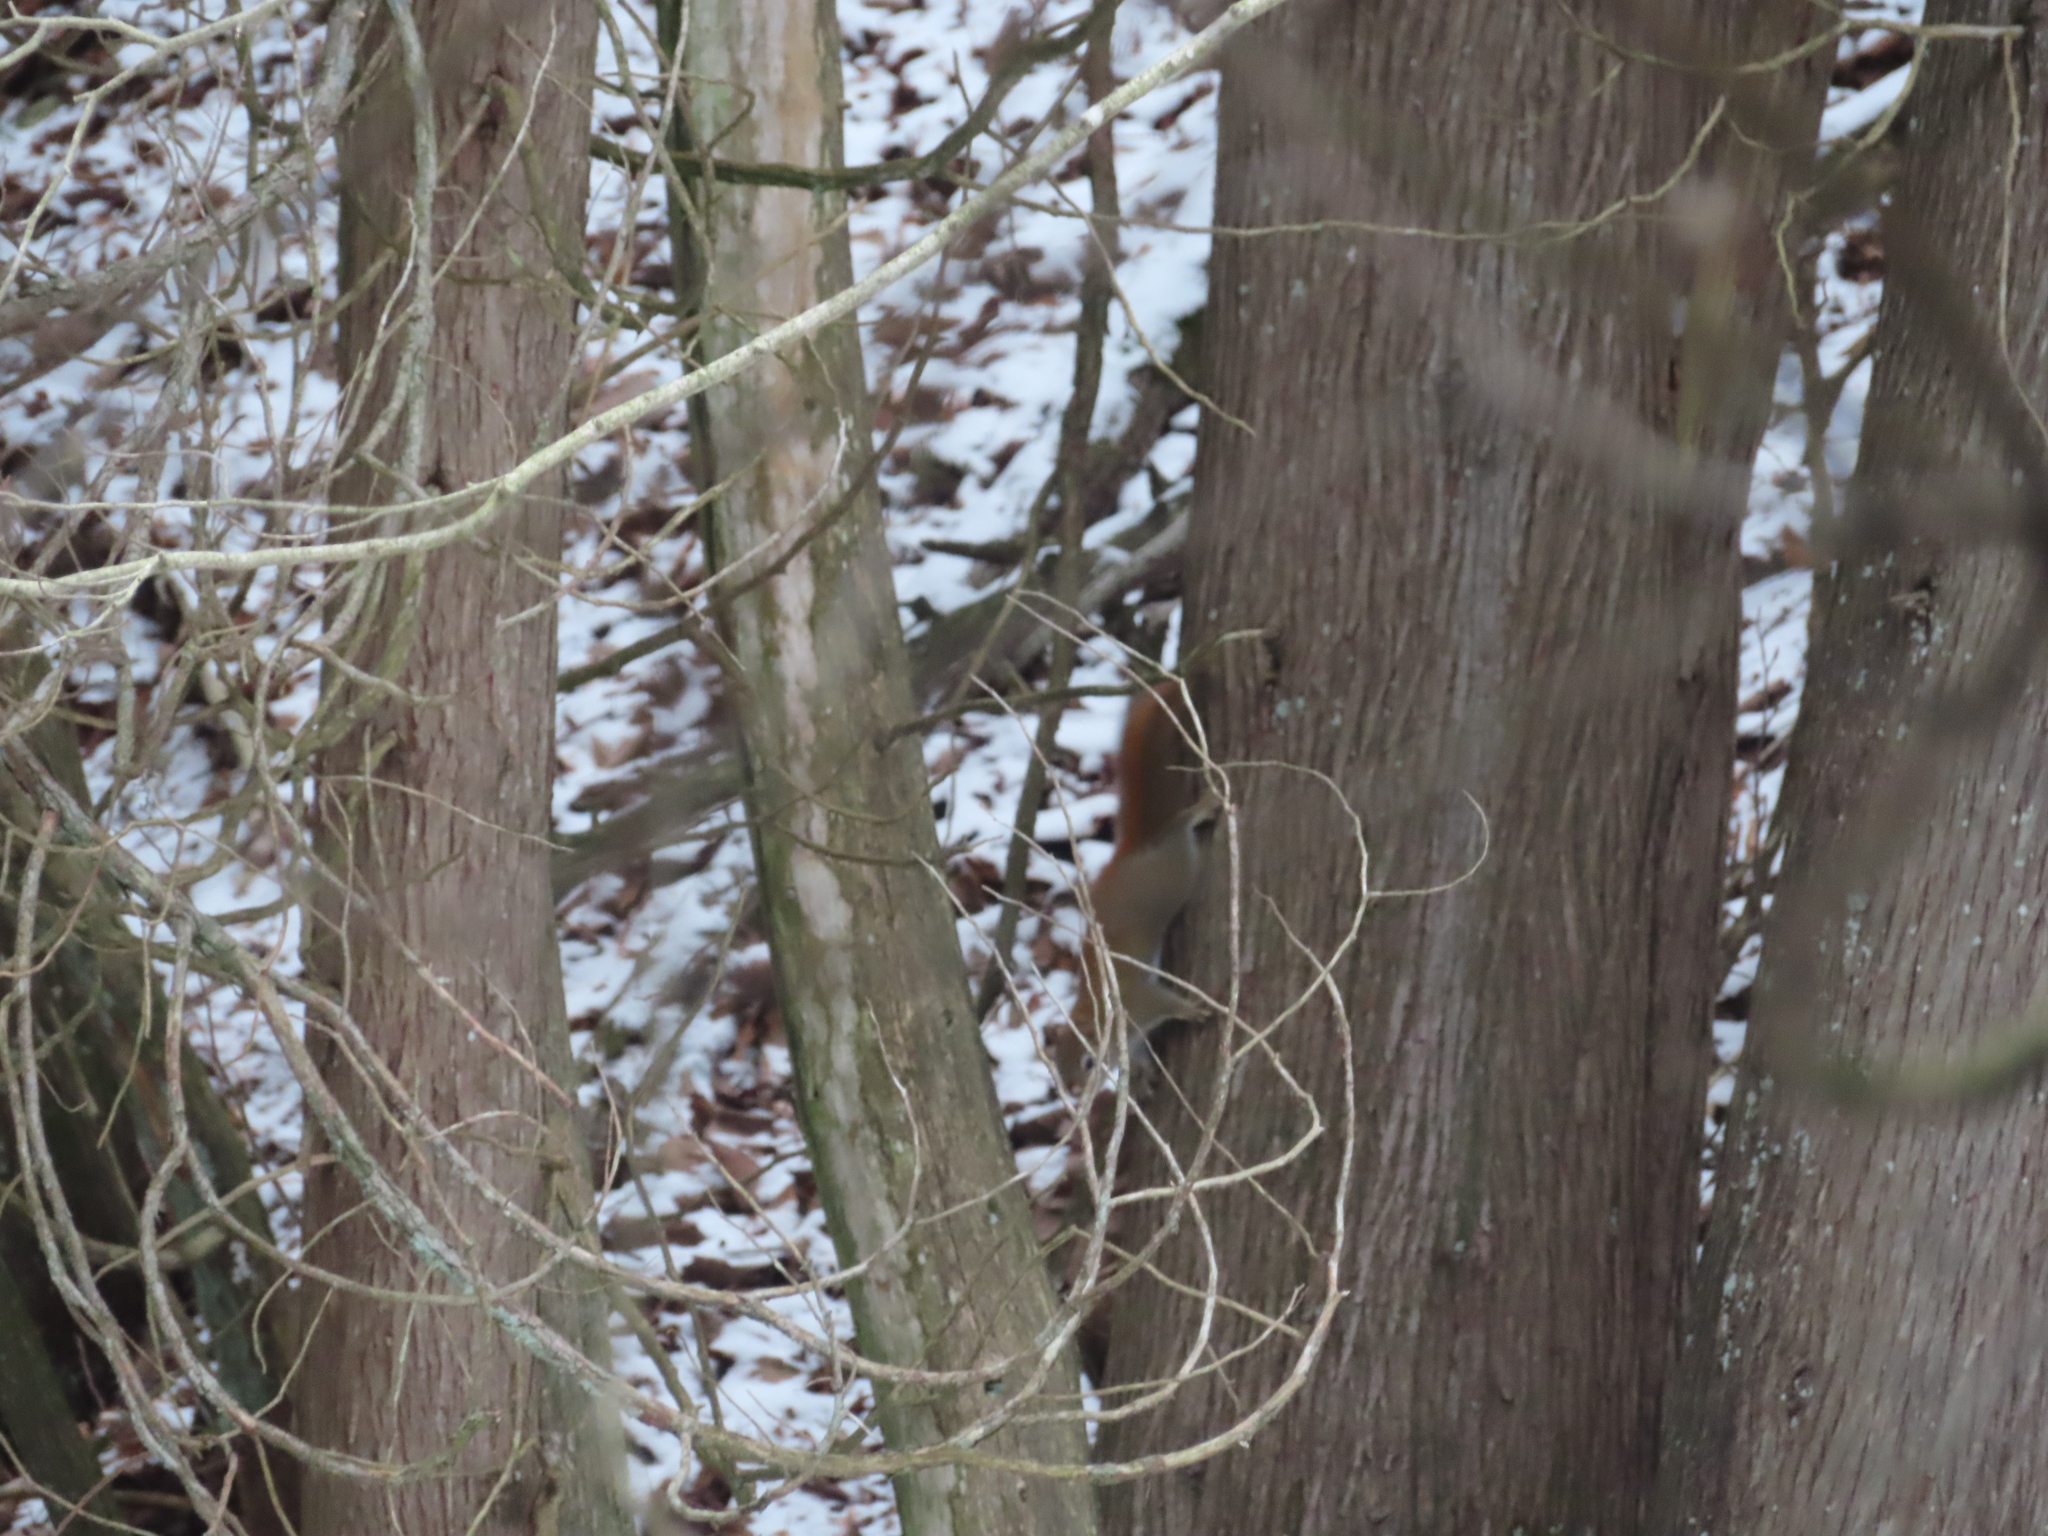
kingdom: Plantae
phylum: Tracheophyta
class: Pinopsida
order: Pinales
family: Cupressaceae
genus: Thuja
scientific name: Thuja occidentalis
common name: Northern white-cedar
